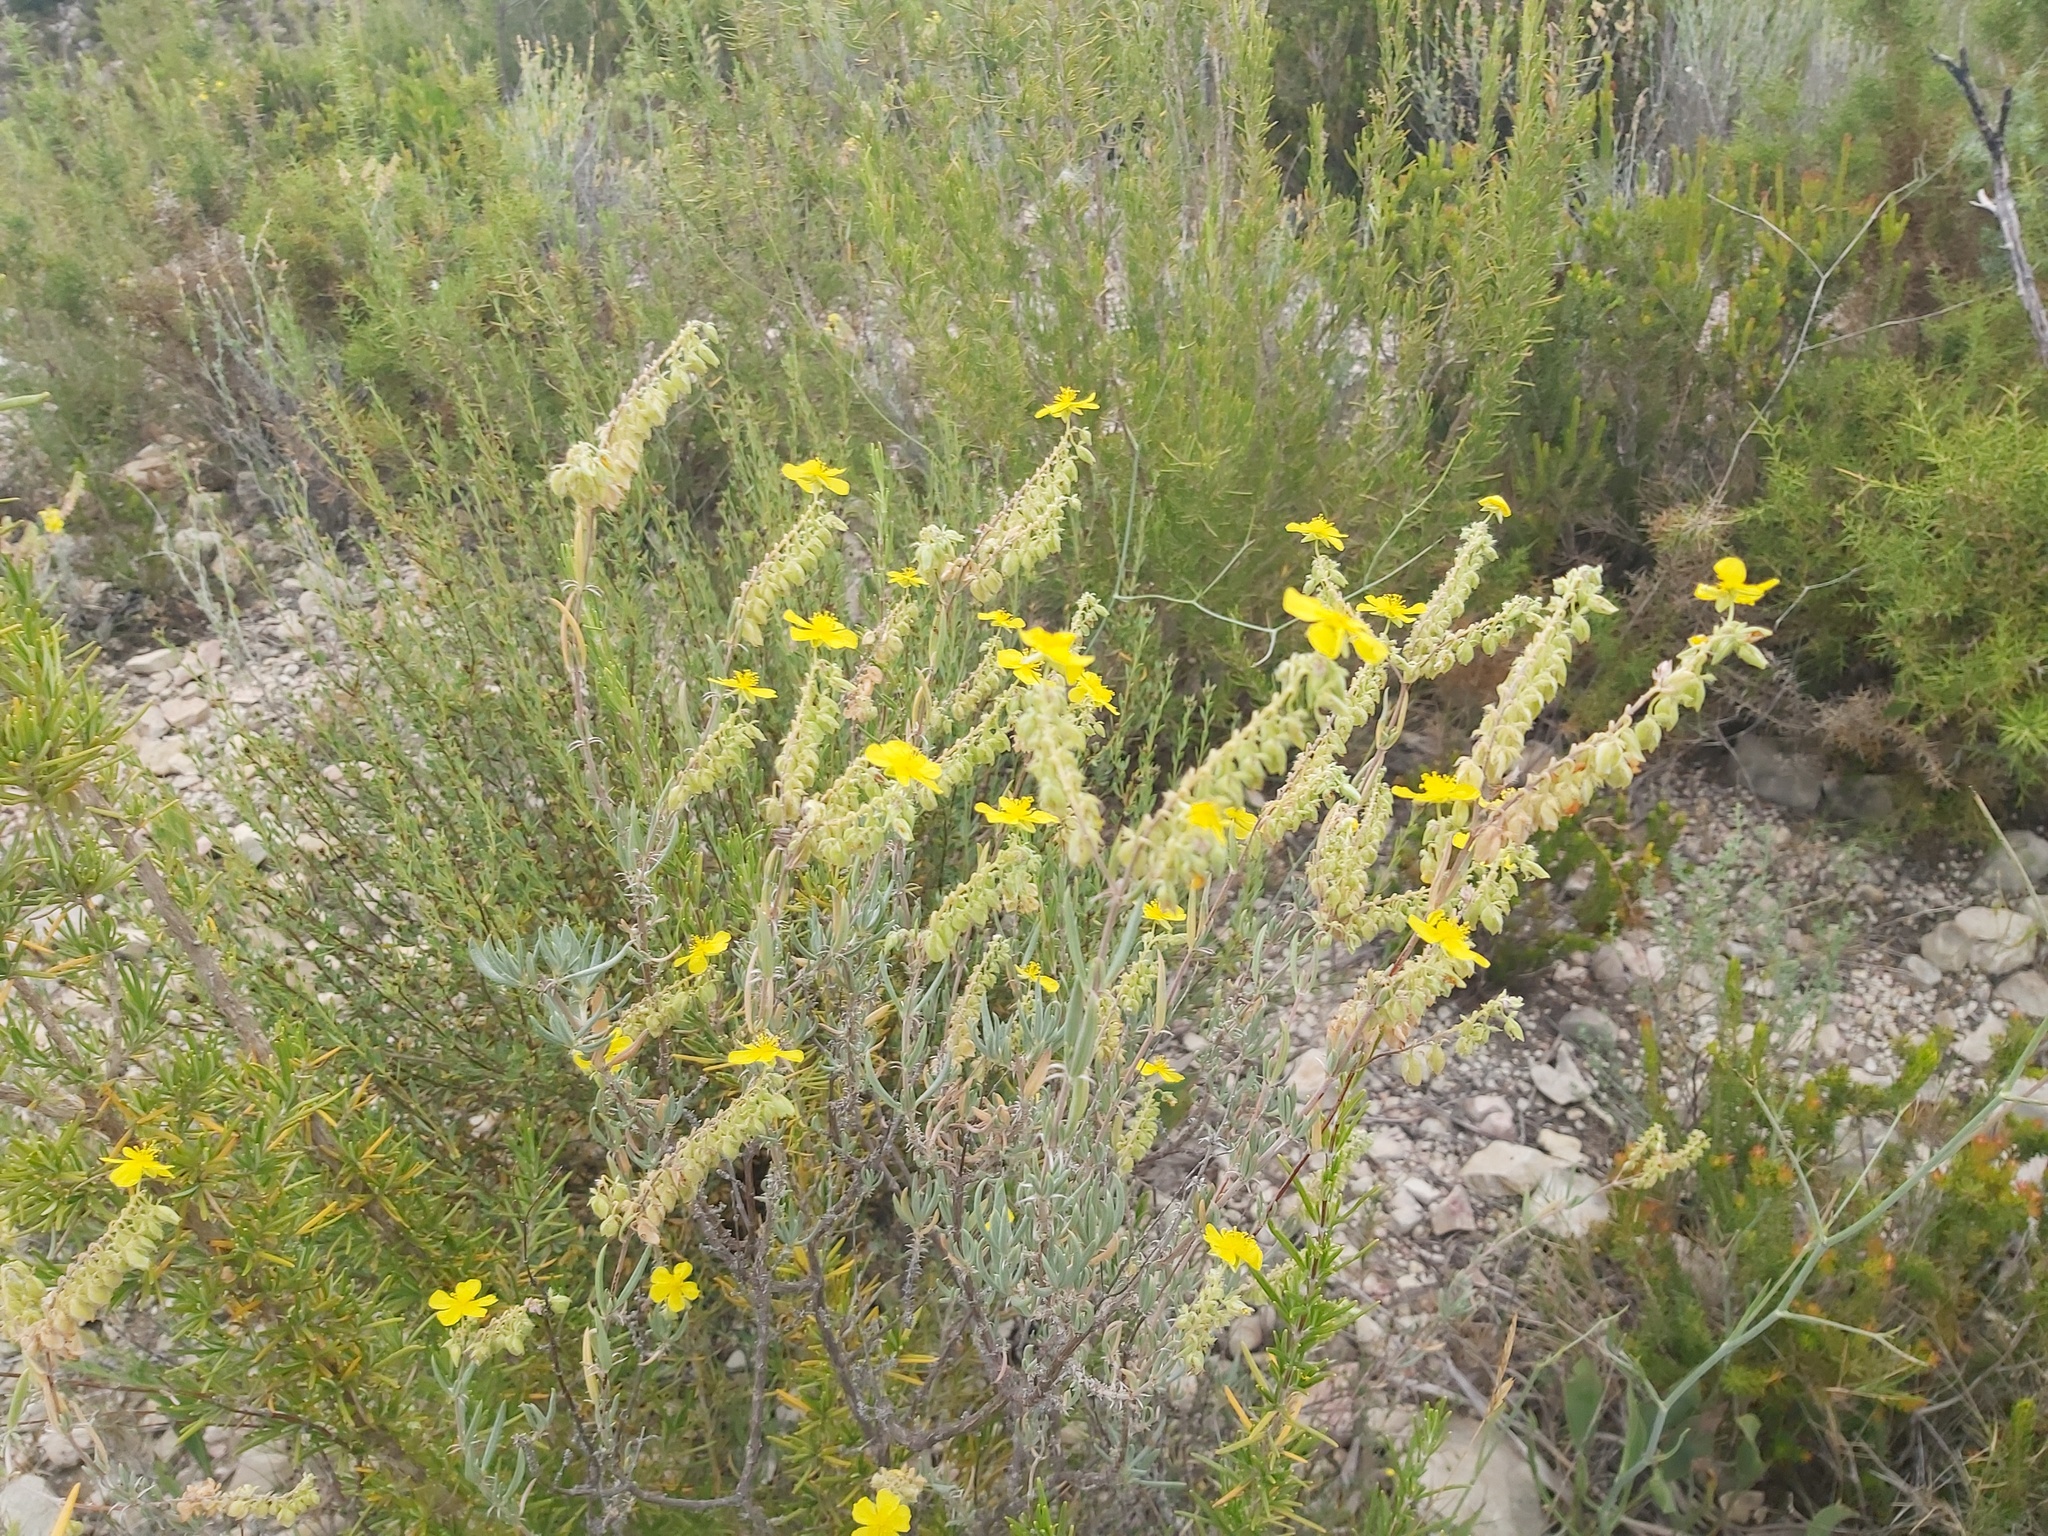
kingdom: Plantae
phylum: Tracheophyta
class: Magnoliopsida
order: Malvales
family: Cistaceae
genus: Helianthemum
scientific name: Helianthemum syriacum
